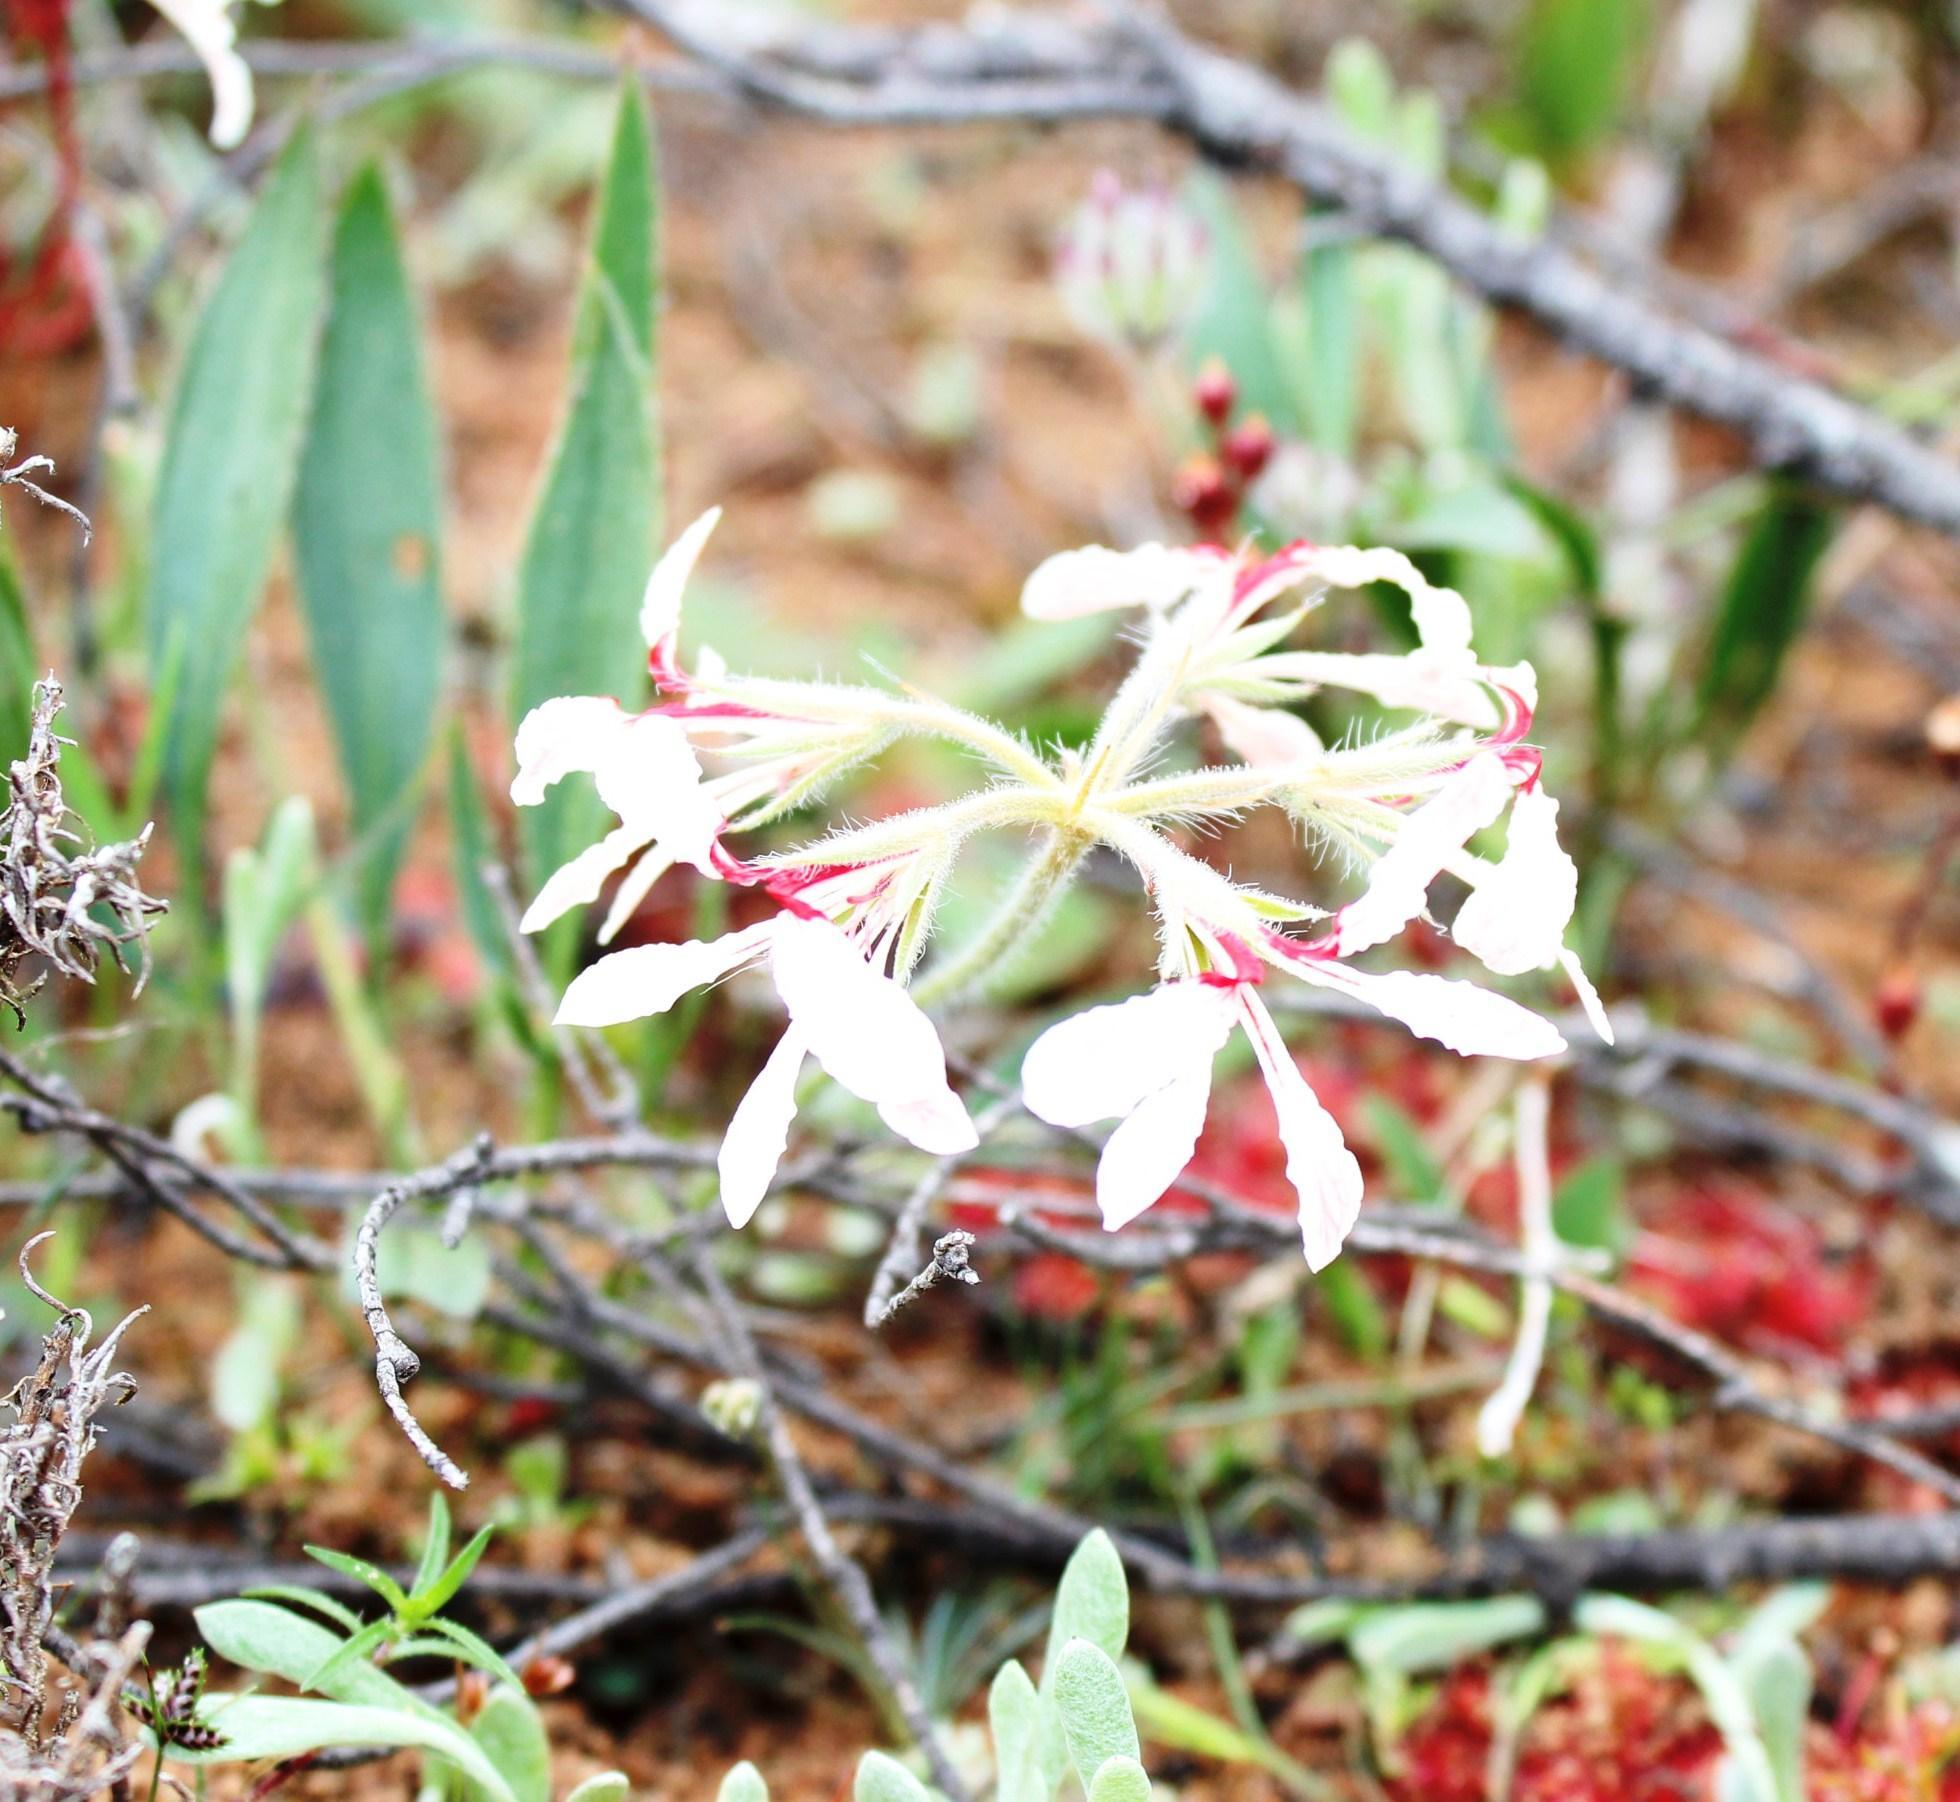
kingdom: Plantae
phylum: Tracheophyta
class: Magnoliopsida
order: Geraniales
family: Geraniaceae
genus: Pelargonium
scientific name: Pelargonium longifolium
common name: Bearded pelargonium
